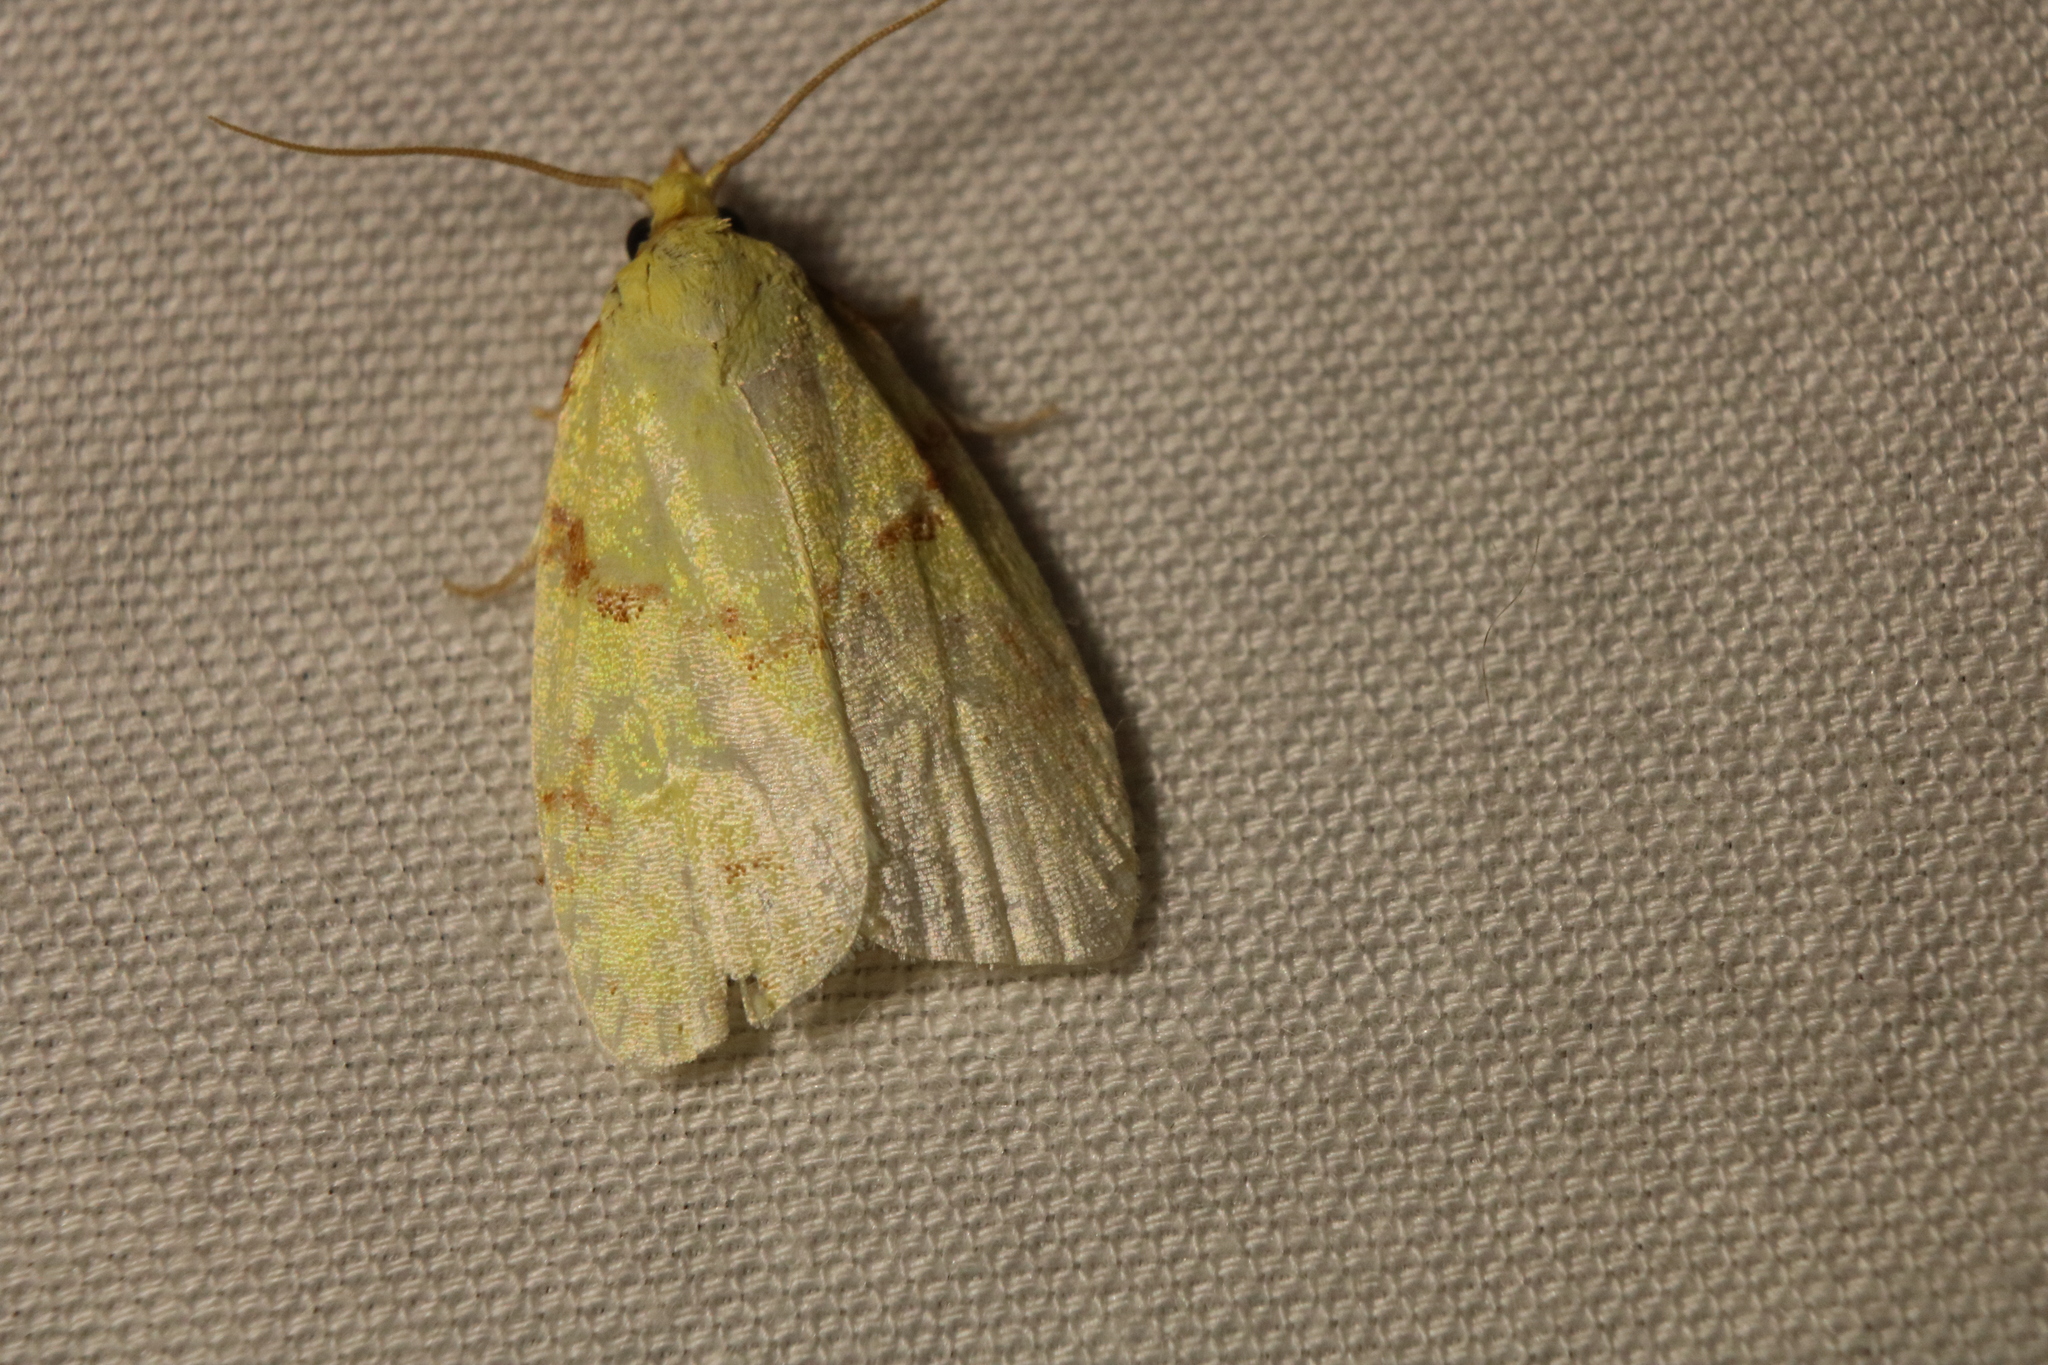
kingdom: Animalia
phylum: Arthropoda
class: Insecta
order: Lepidoptera
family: Tortricidae
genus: Cenopis
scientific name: Cenopis pettitana
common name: Maple-basswood leafroller moth
